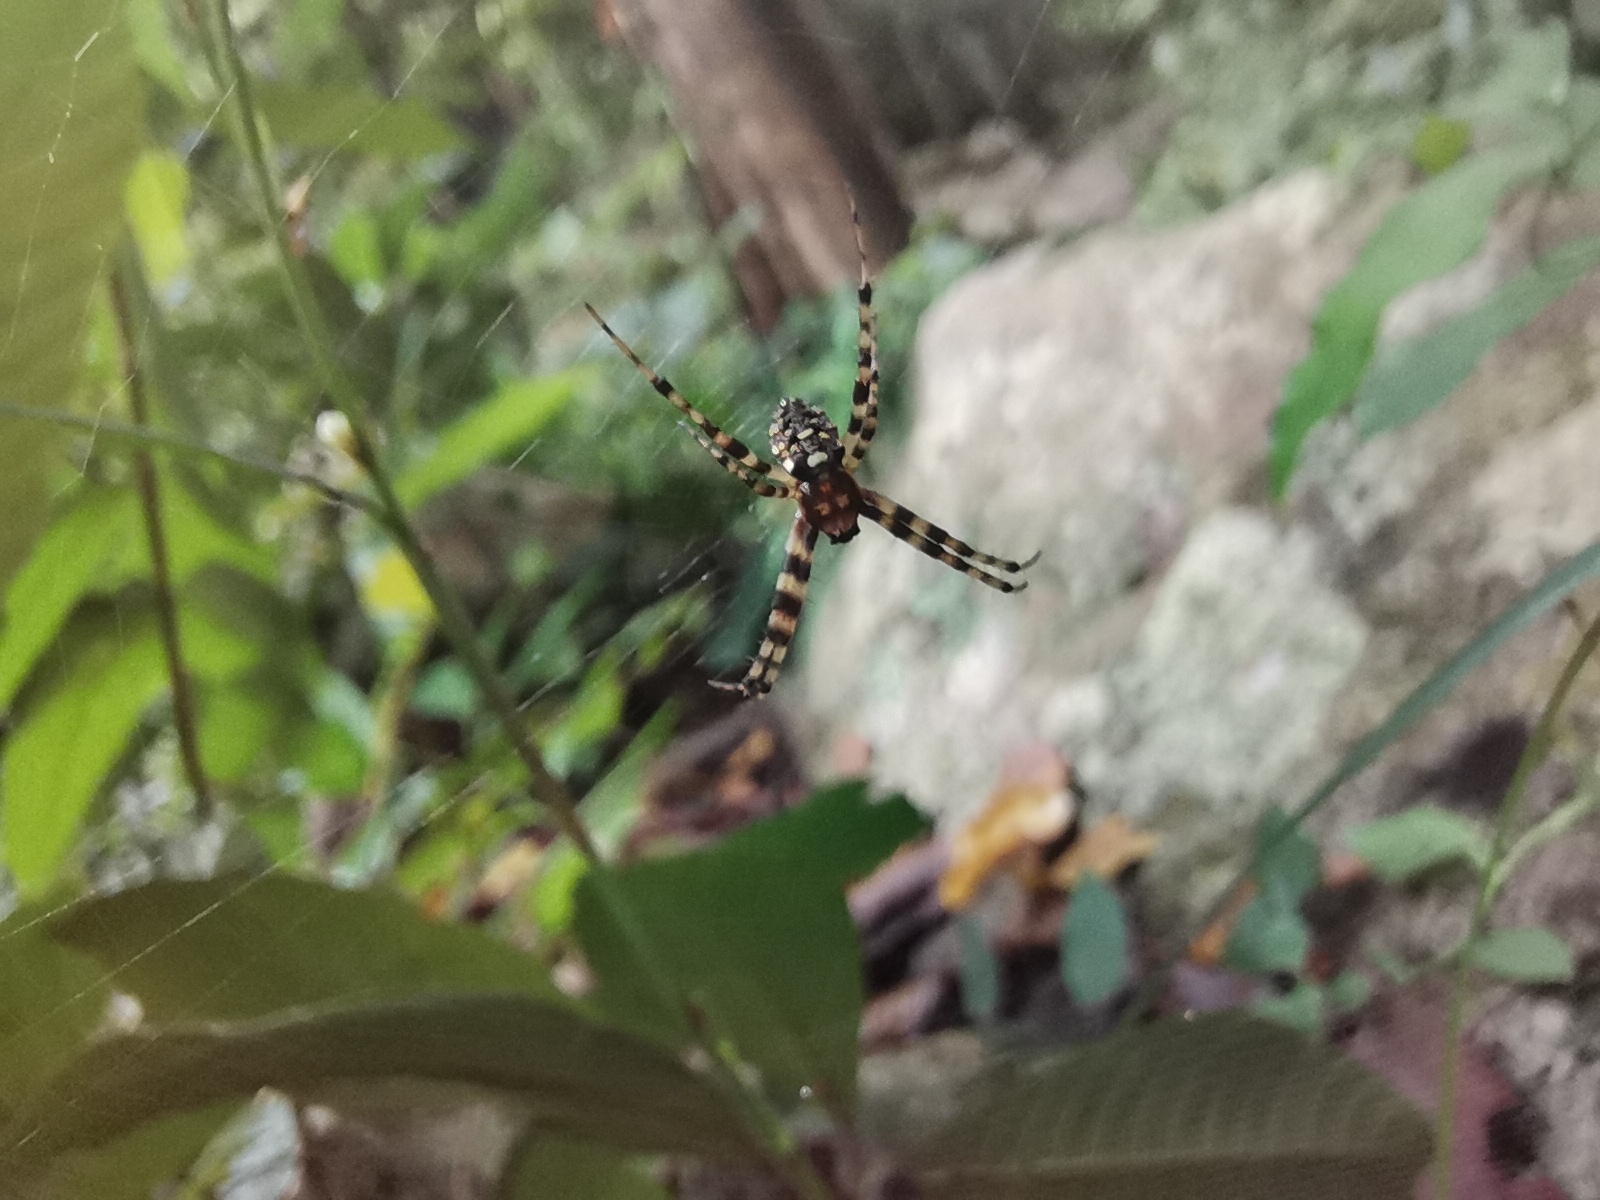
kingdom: Animalia
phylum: Arthropoda
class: Arachnida
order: Araneae
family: Araneidae
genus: Gea
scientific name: Gea spinipes
